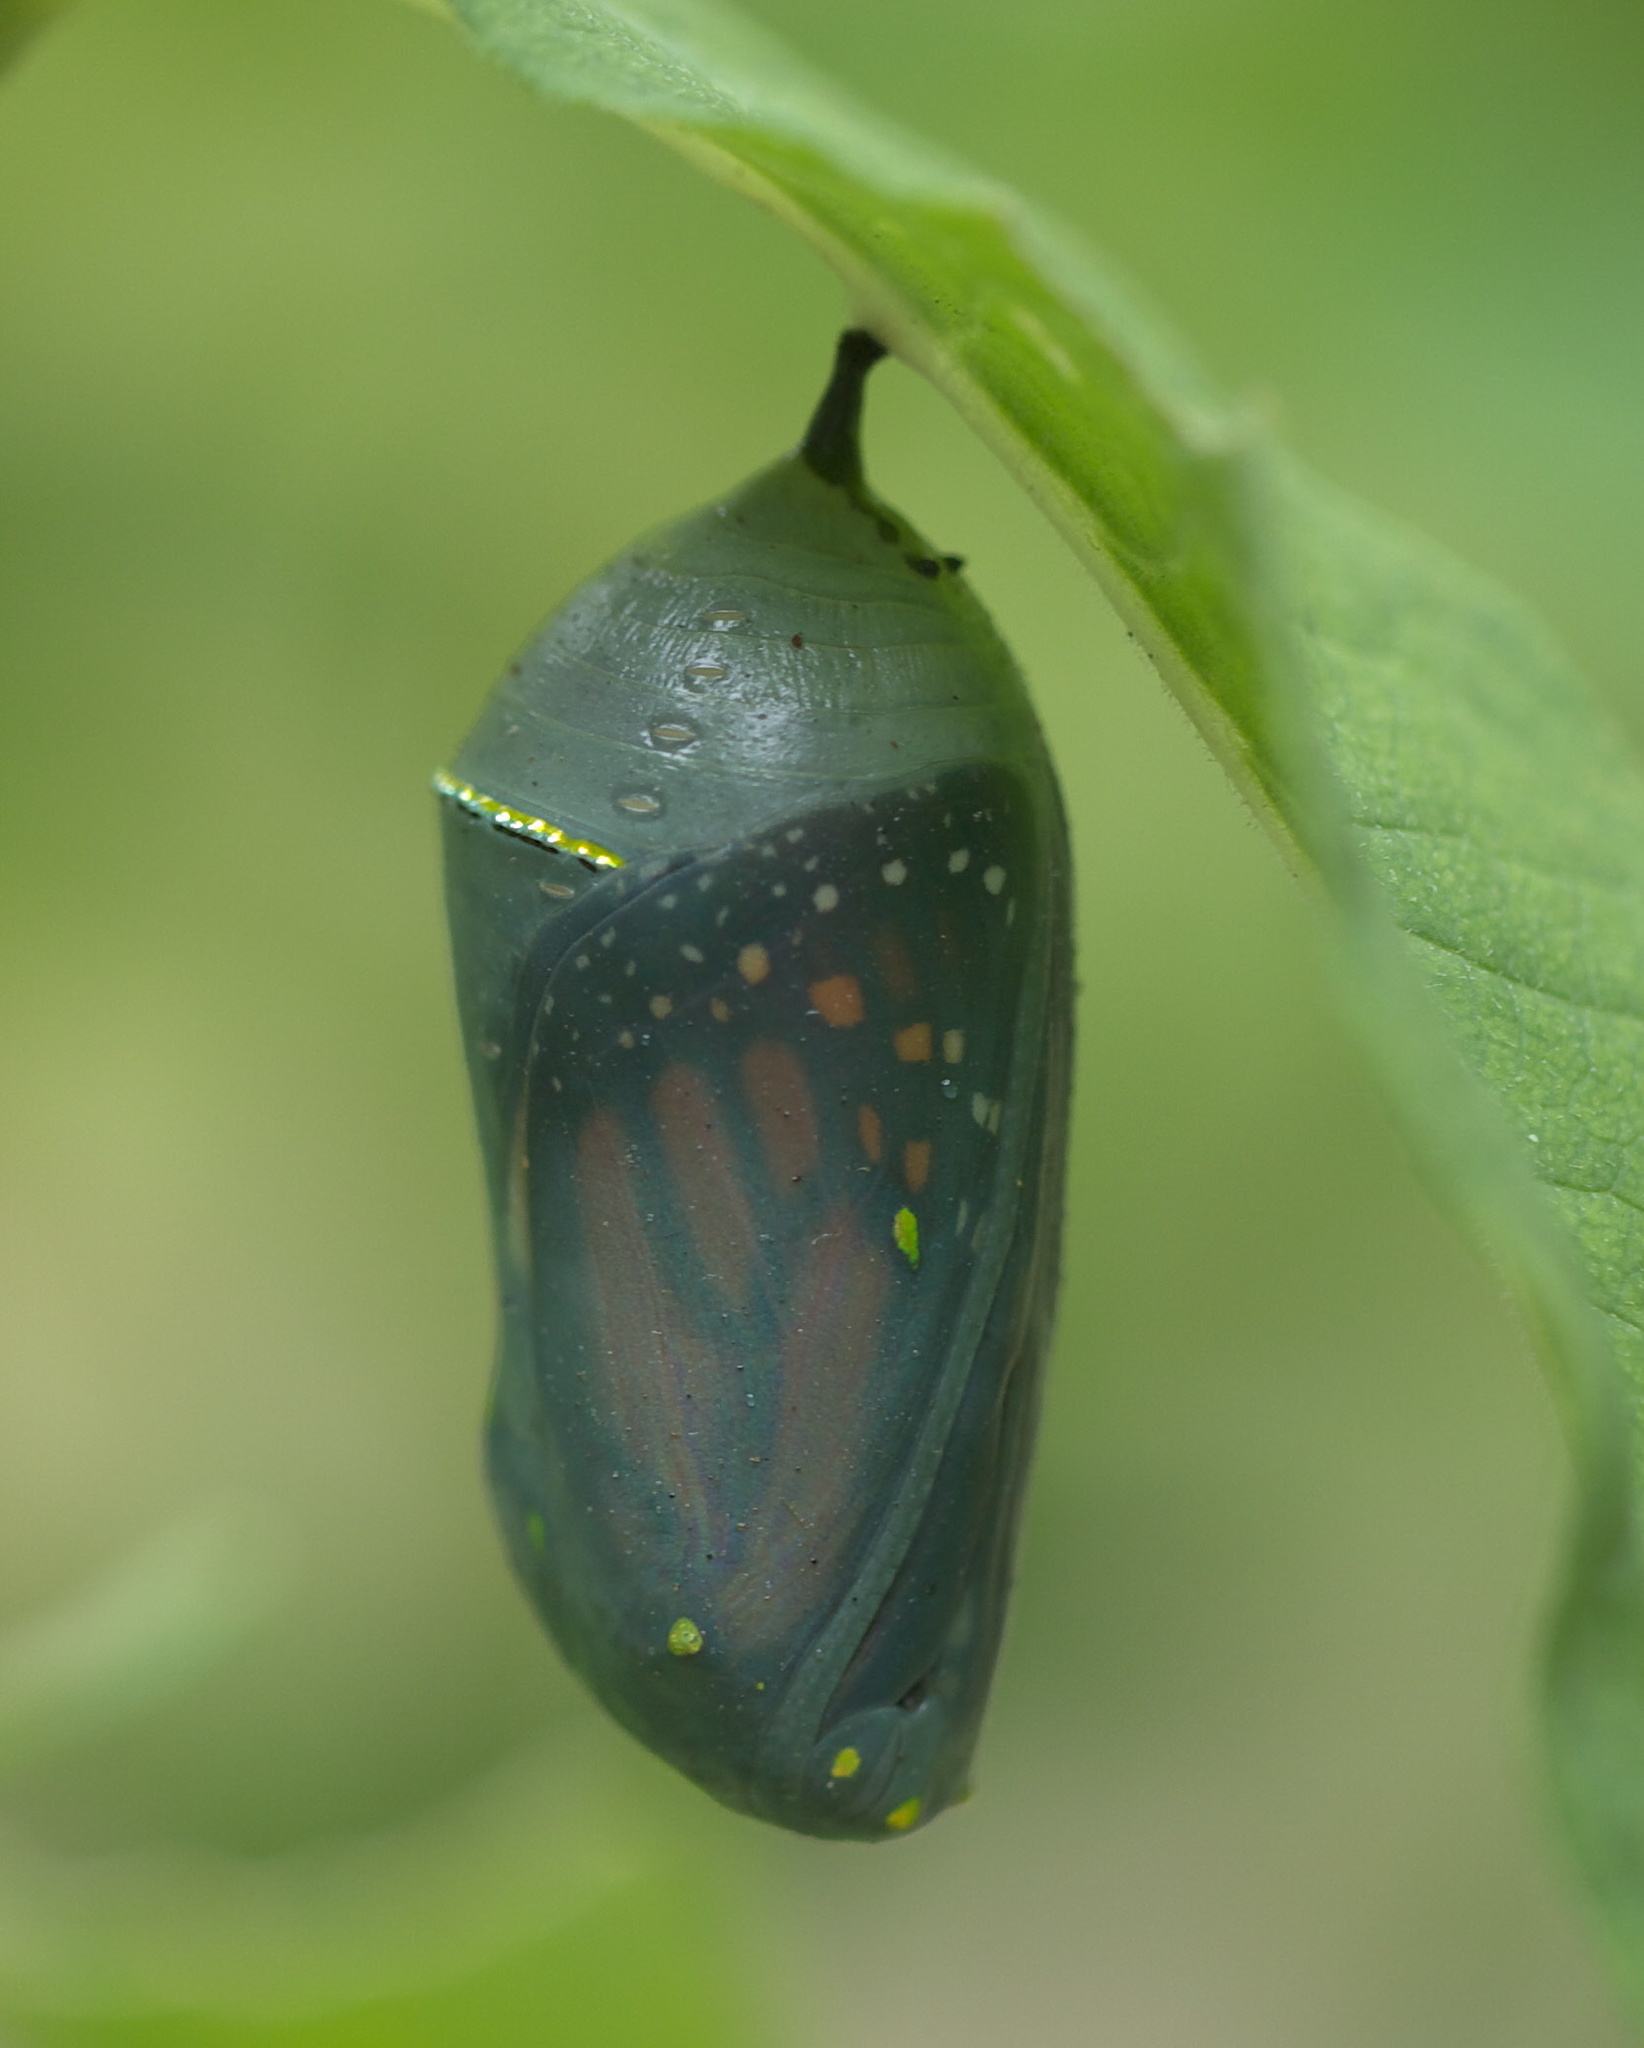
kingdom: Animalia
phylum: Arthropoda
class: Insecta
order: Lepidoptera
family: Nymphalidae
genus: Danaus
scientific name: Danaus plexippus
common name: Monarch
